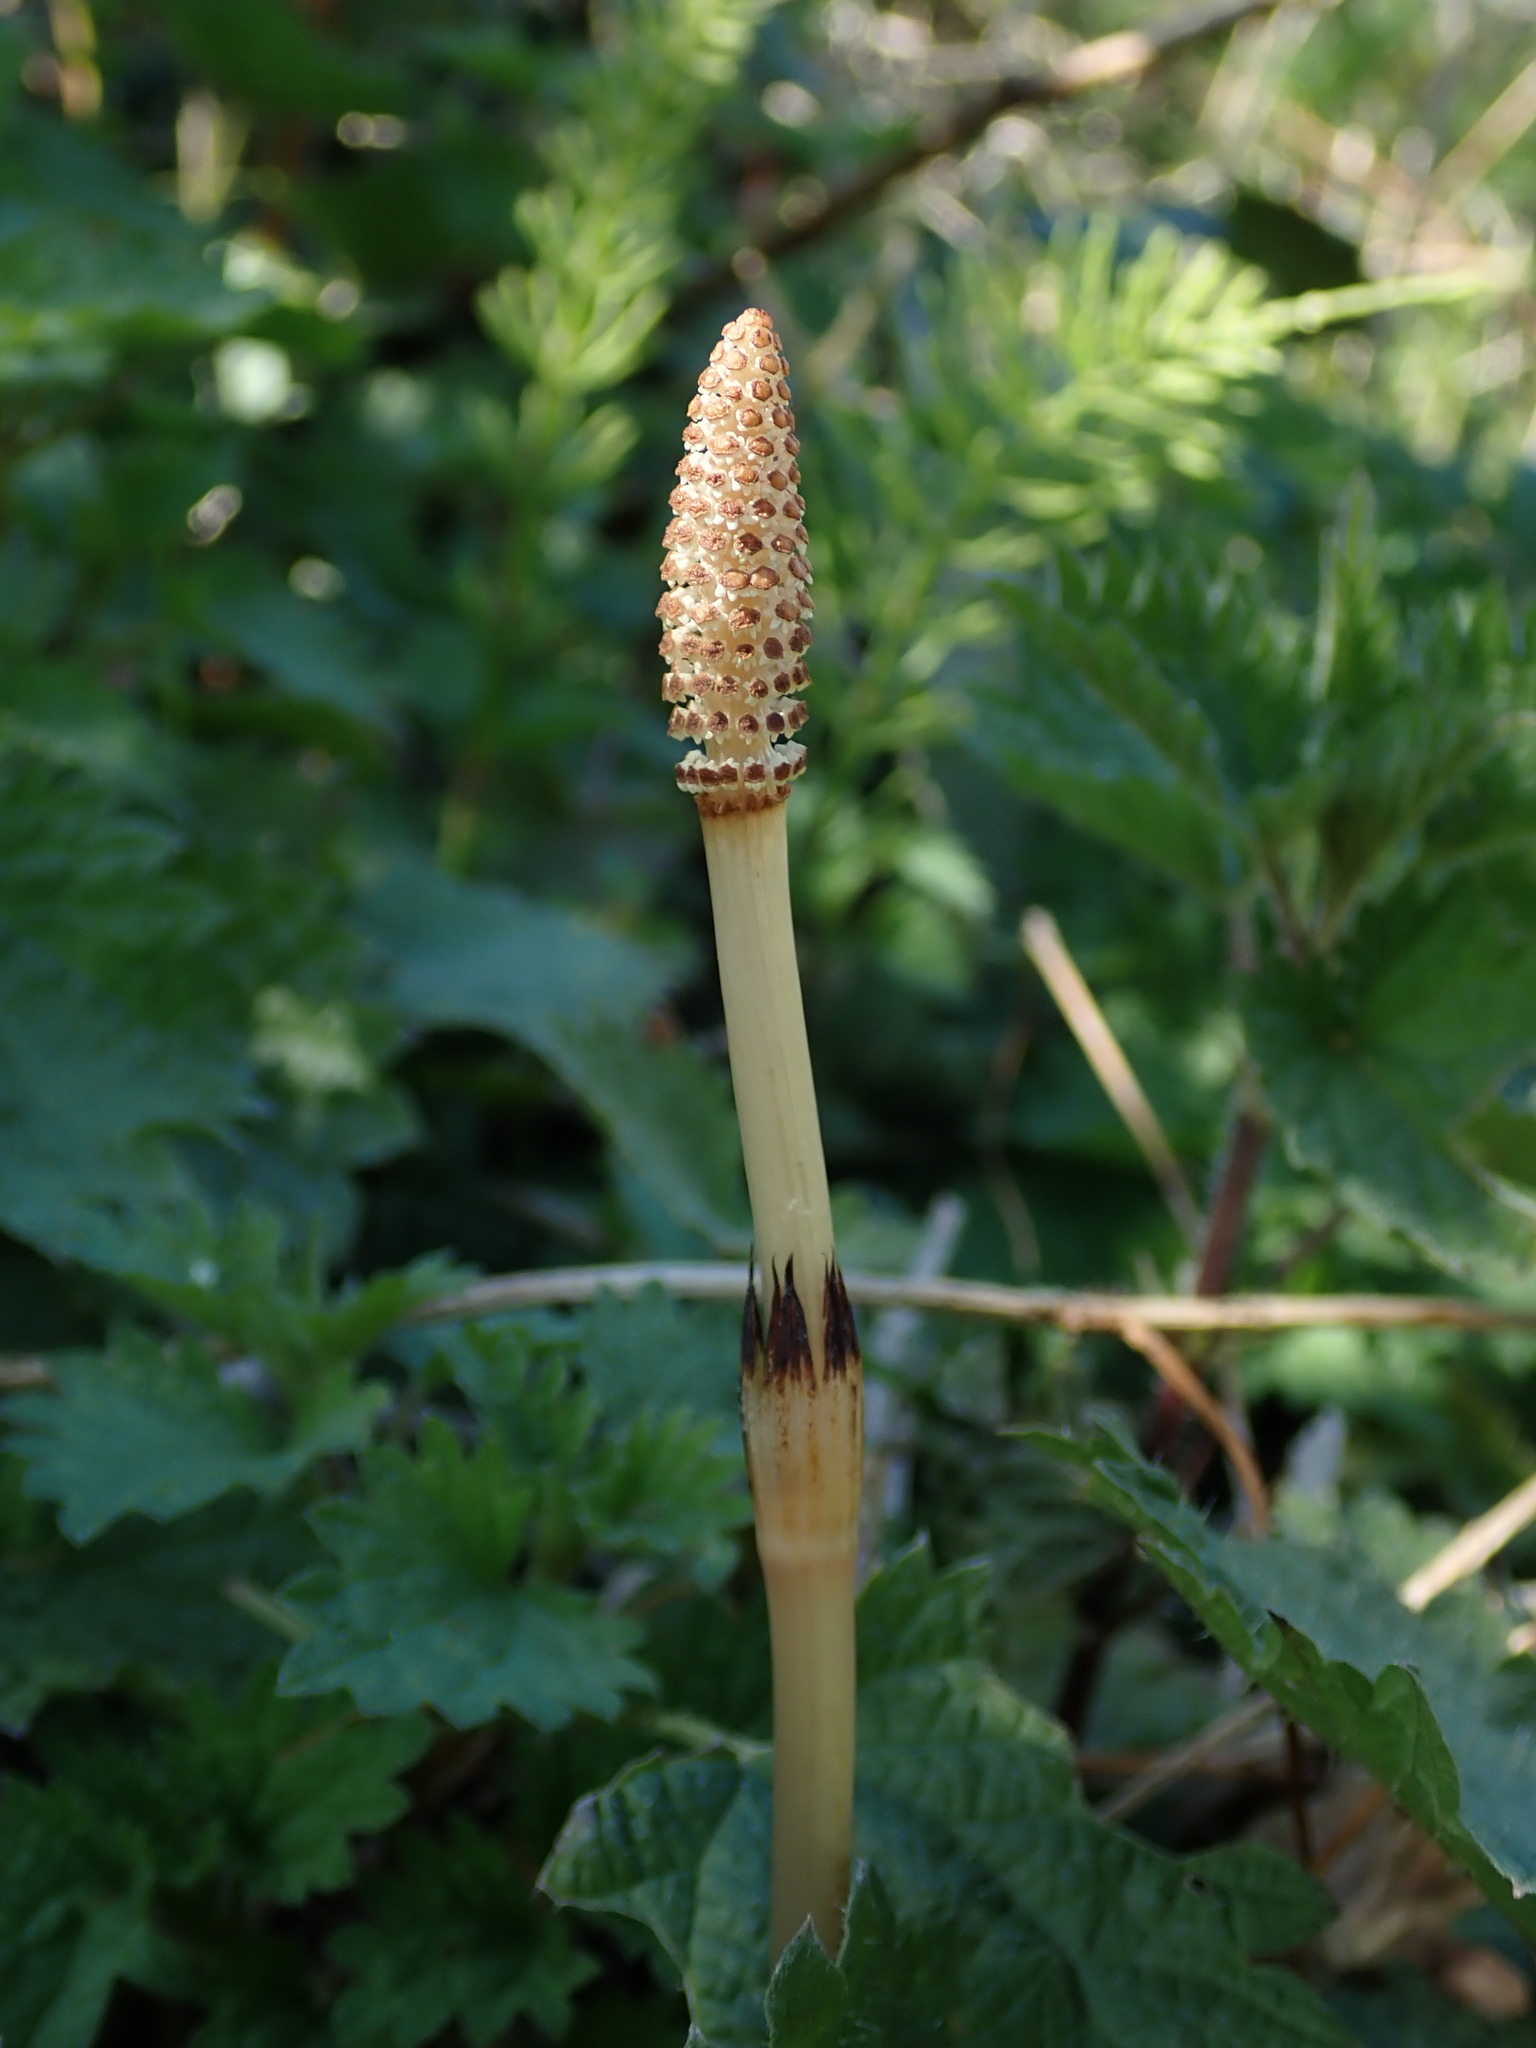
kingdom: Plantae
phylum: Tracheophyta
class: Polypodiopsida
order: Equisetales
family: Equisetaceae
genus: Equisetum
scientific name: Equisetum arvense
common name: Field horsetail
